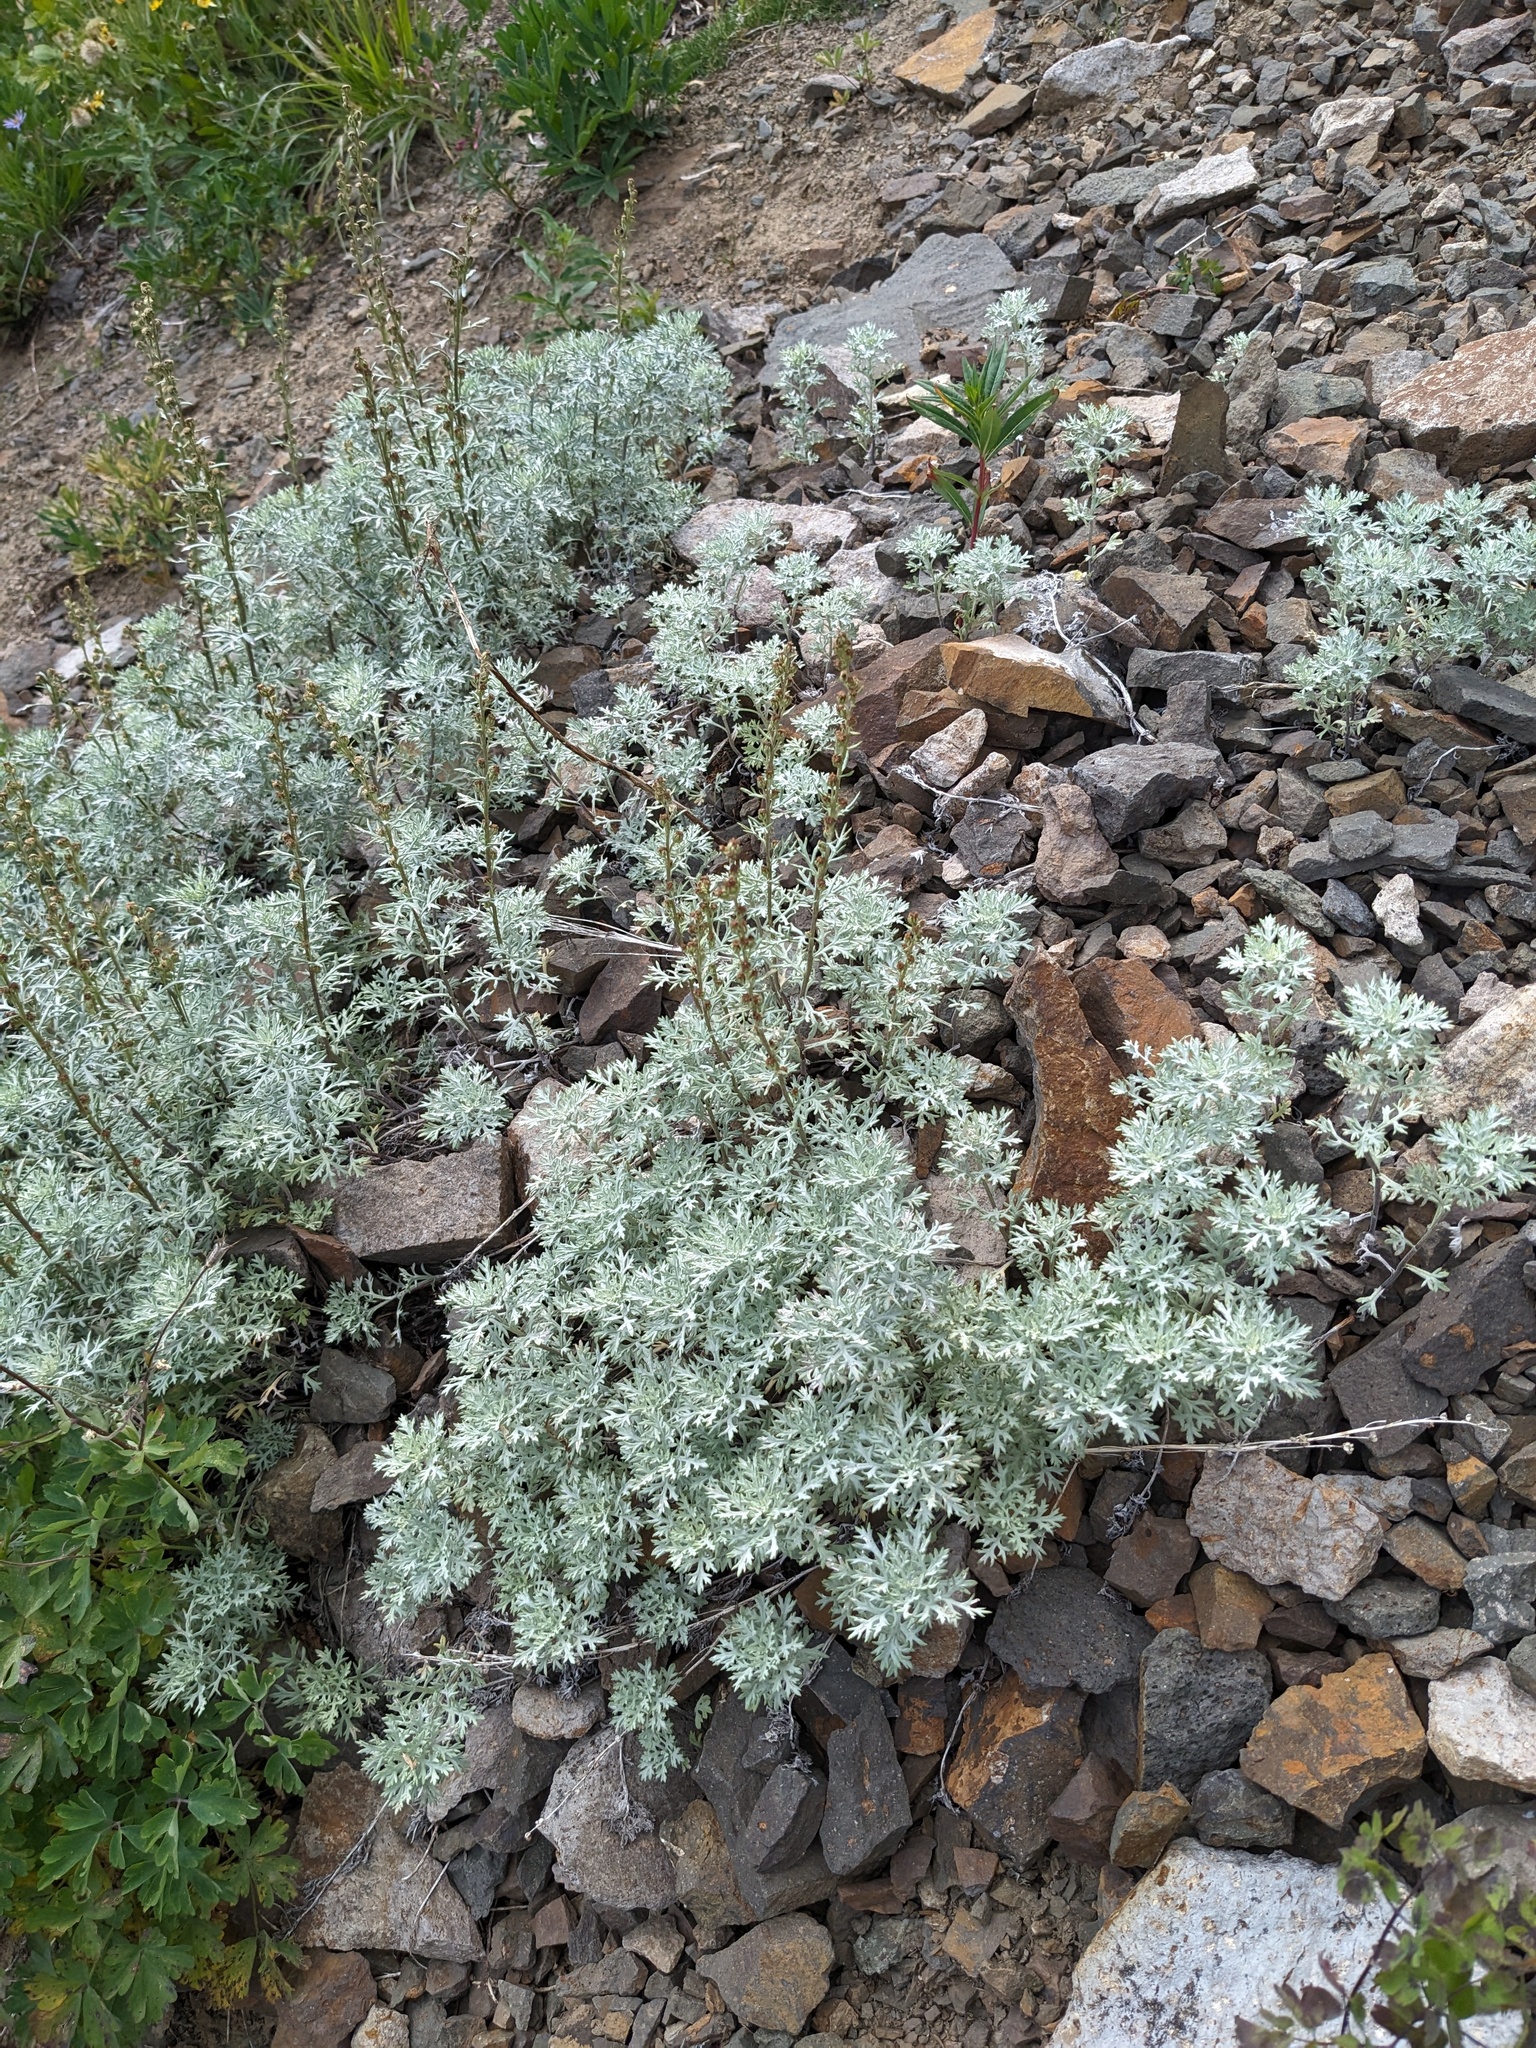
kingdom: Plantae
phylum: Tracheophyta
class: Magnoliopsida
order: Asterales
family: Asteraceae
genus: Artemisia
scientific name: Artemisia michauxiana
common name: Lemon sagewort
